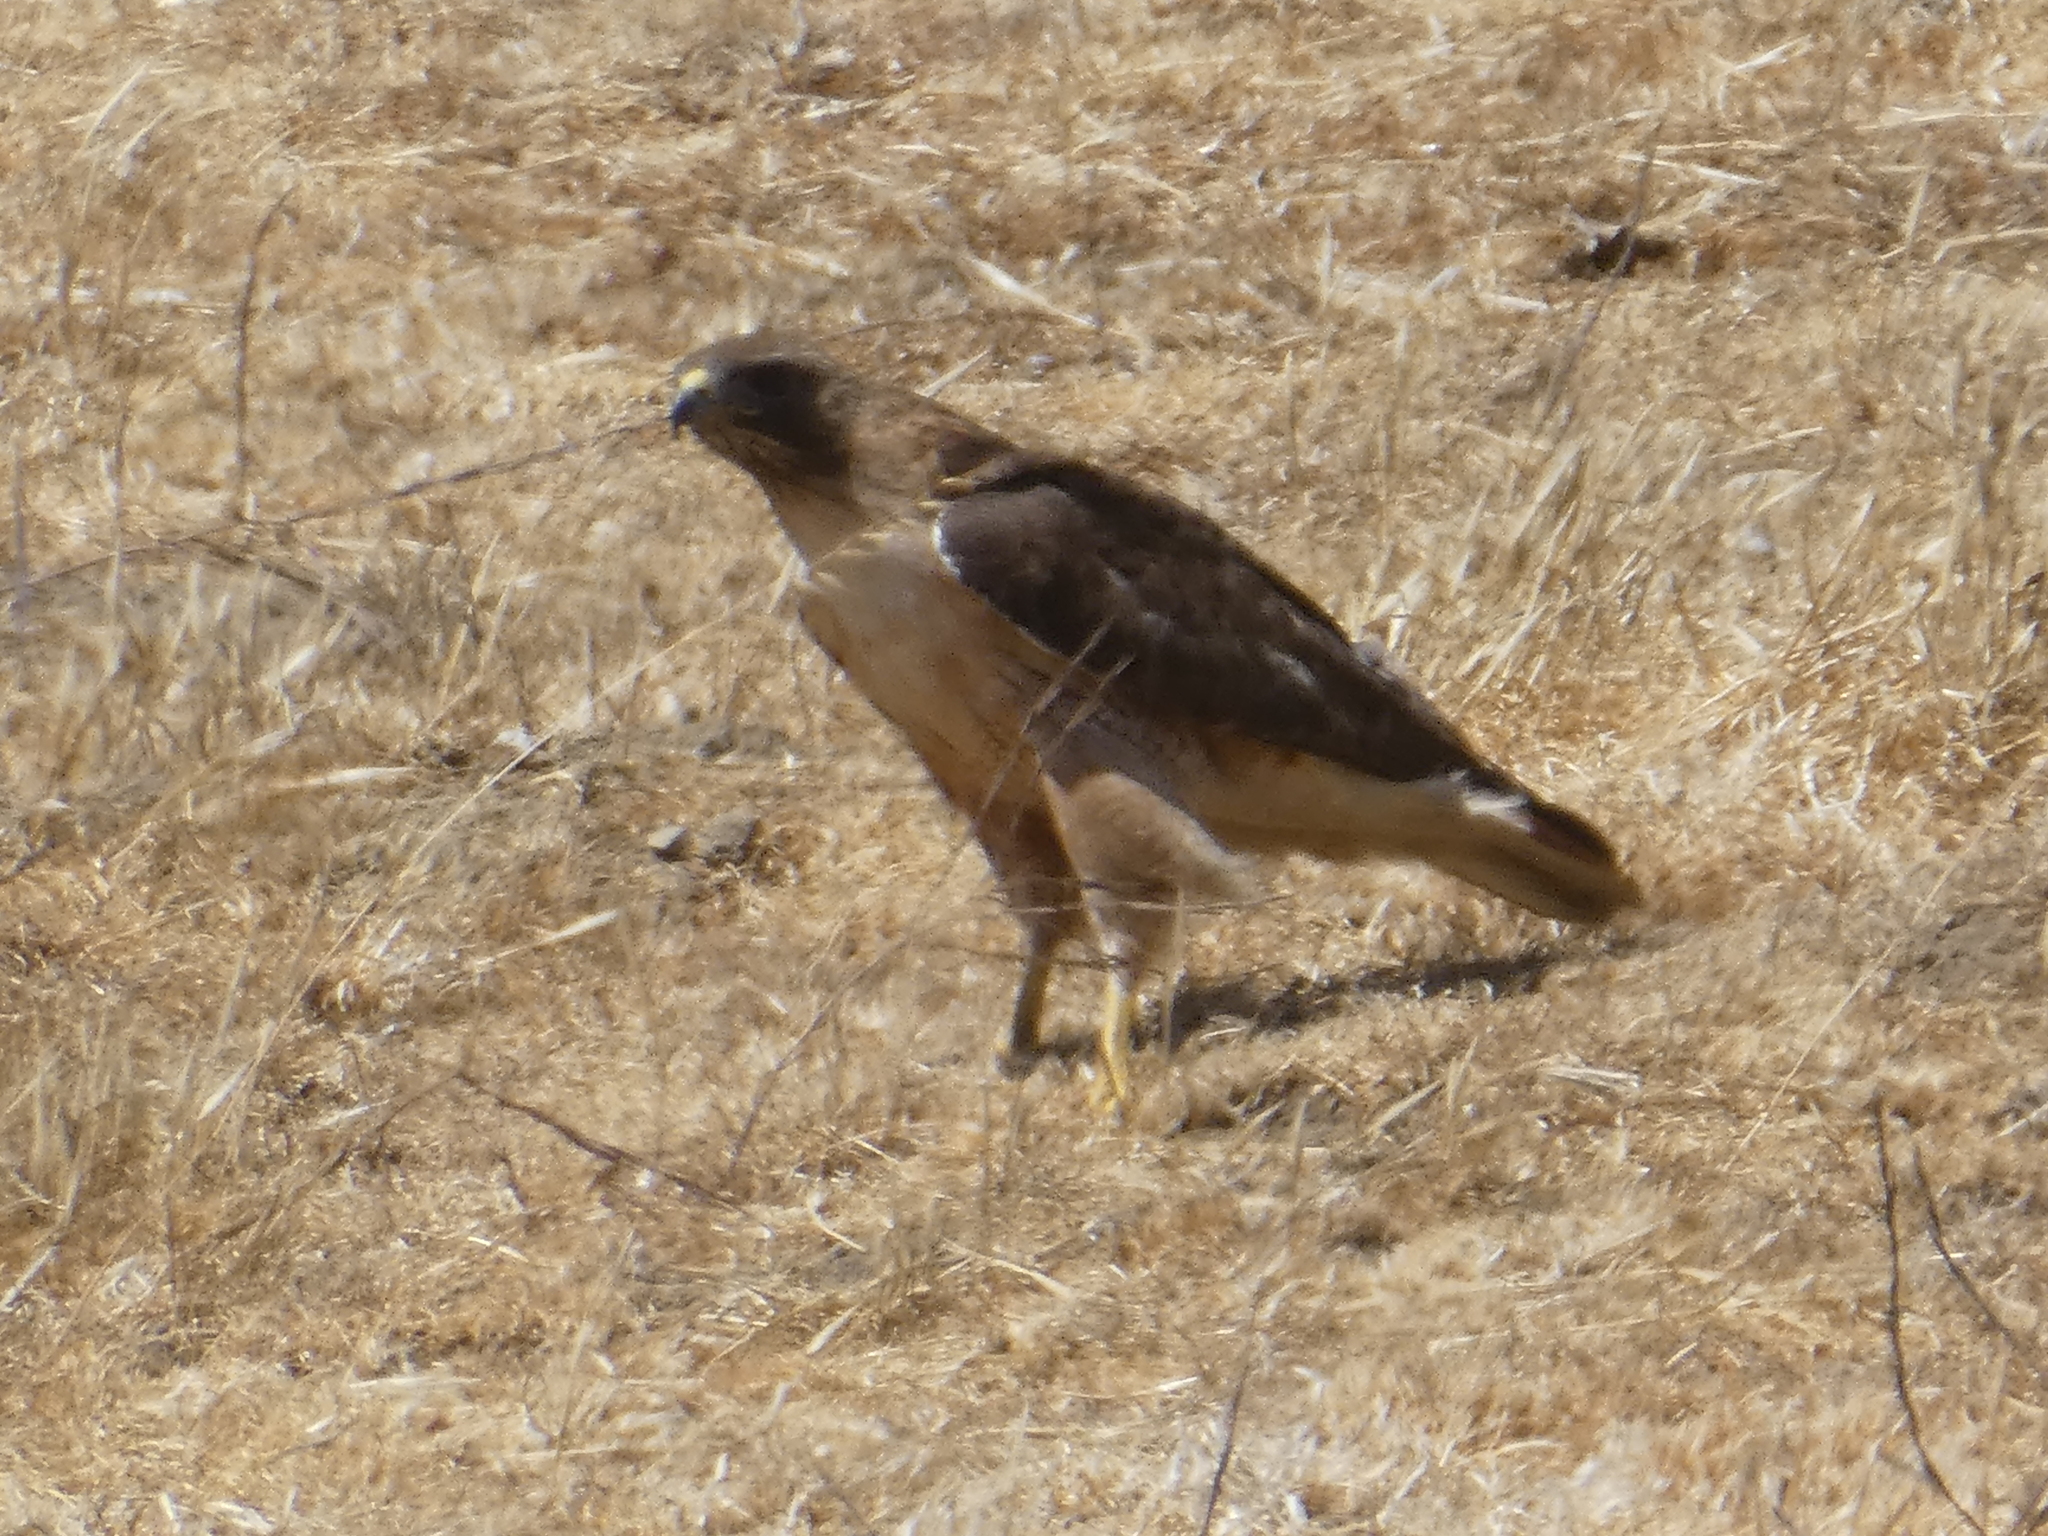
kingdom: Animalia
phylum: Chordata
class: Aves
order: Accipitriformes
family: Accipitridae
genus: Buteo
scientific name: Buteo jamaicensis
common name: Red-tailed hawk
